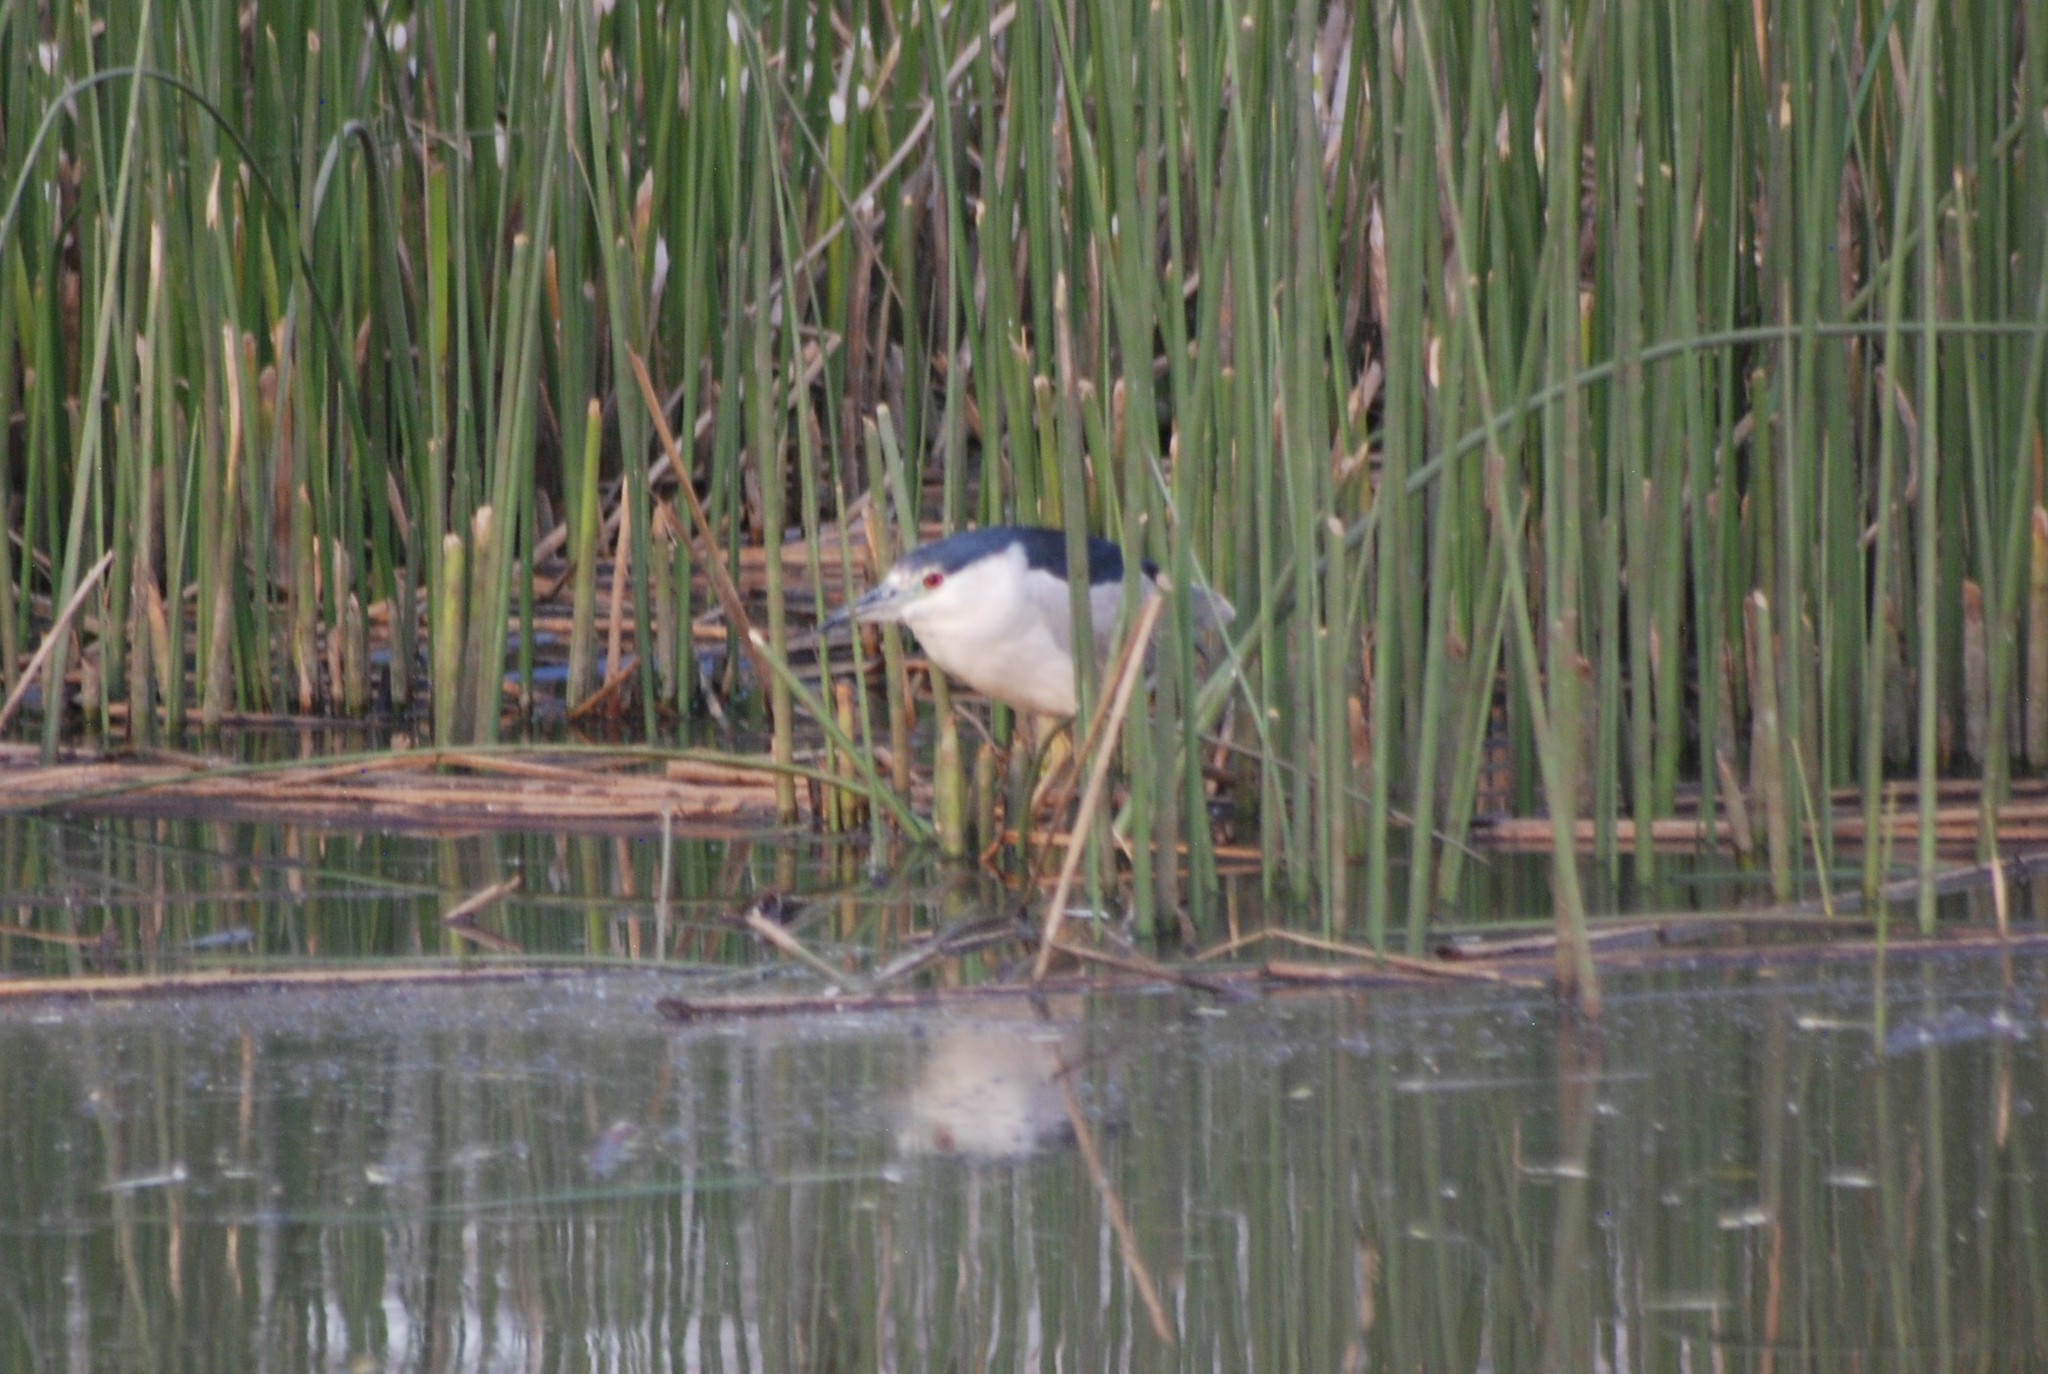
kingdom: Animalia
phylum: Chordata
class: Aves
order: Pelecaniformes
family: Ardeidae
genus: Nycticorax
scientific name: Nycticorax nycticorax
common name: Black-crowned night heron
